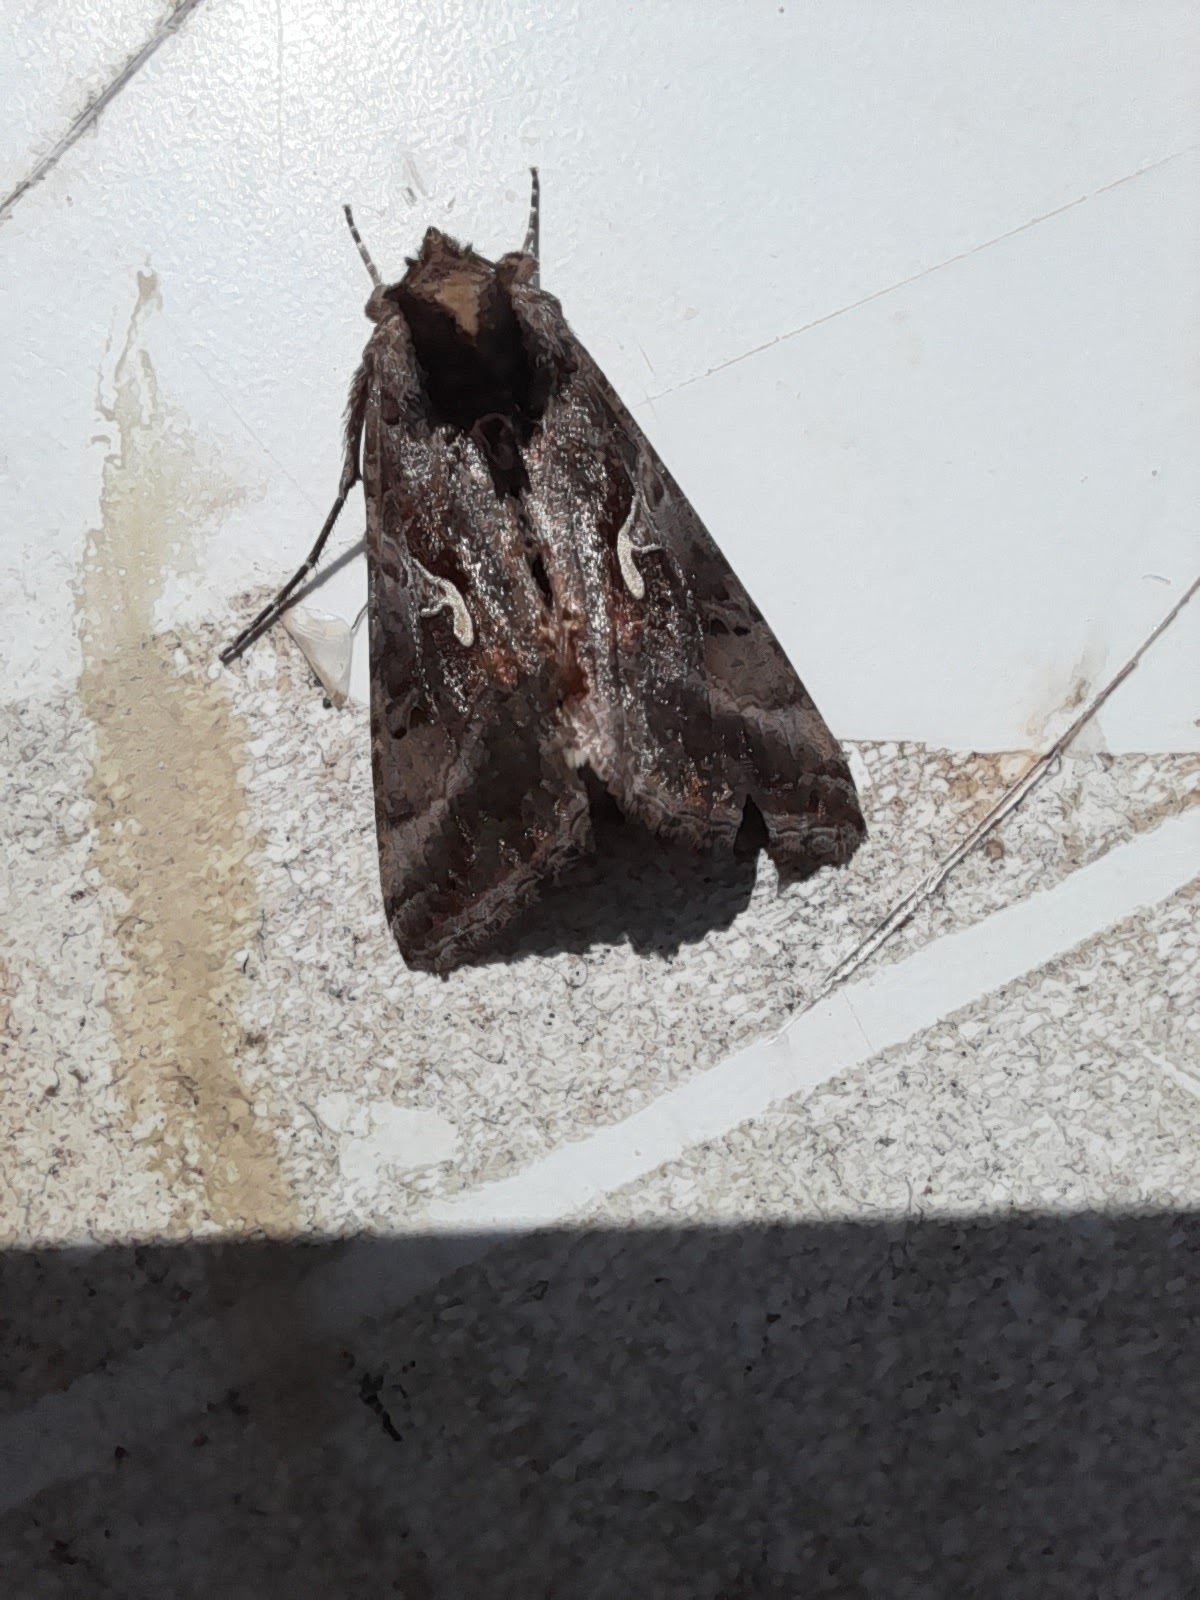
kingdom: Animalia
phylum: Arthropoda
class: Insecta
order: Lepidoptera
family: Noctuidae
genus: Autographa
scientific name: Autographa gamma
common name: Silver y
